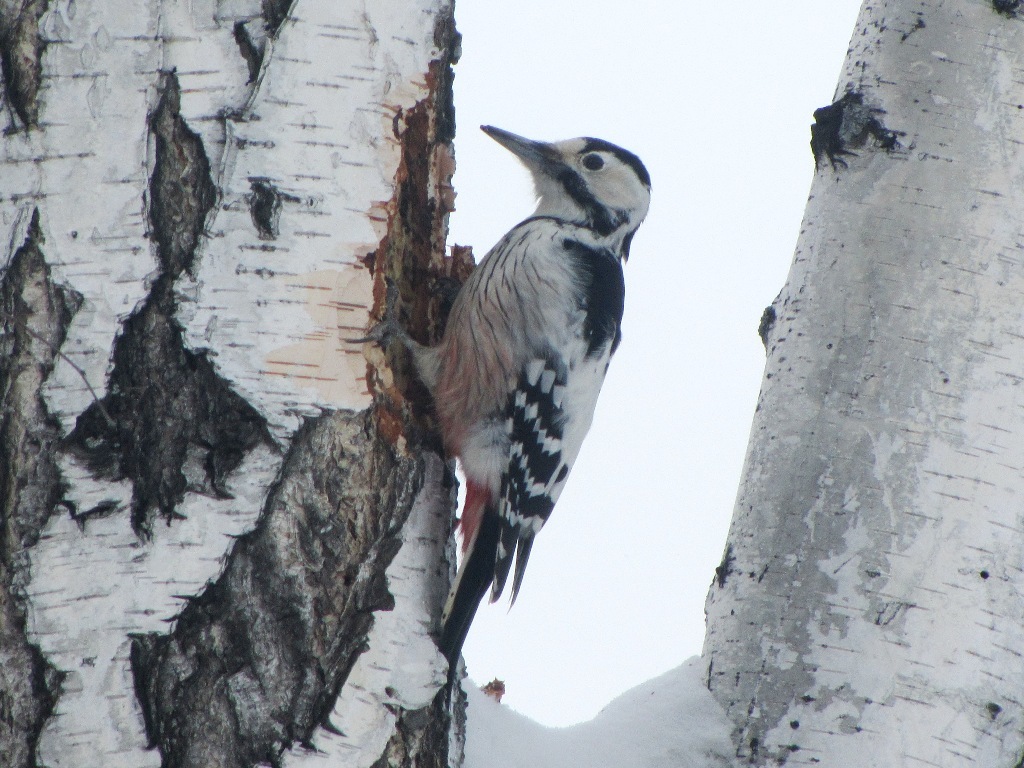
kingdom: Animalia
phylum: Chordata
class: Aves
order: Piciformes
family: Picidae
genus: Dendrocopos
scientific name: Dendrocopos leucotos
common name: White-backed woodpecker
